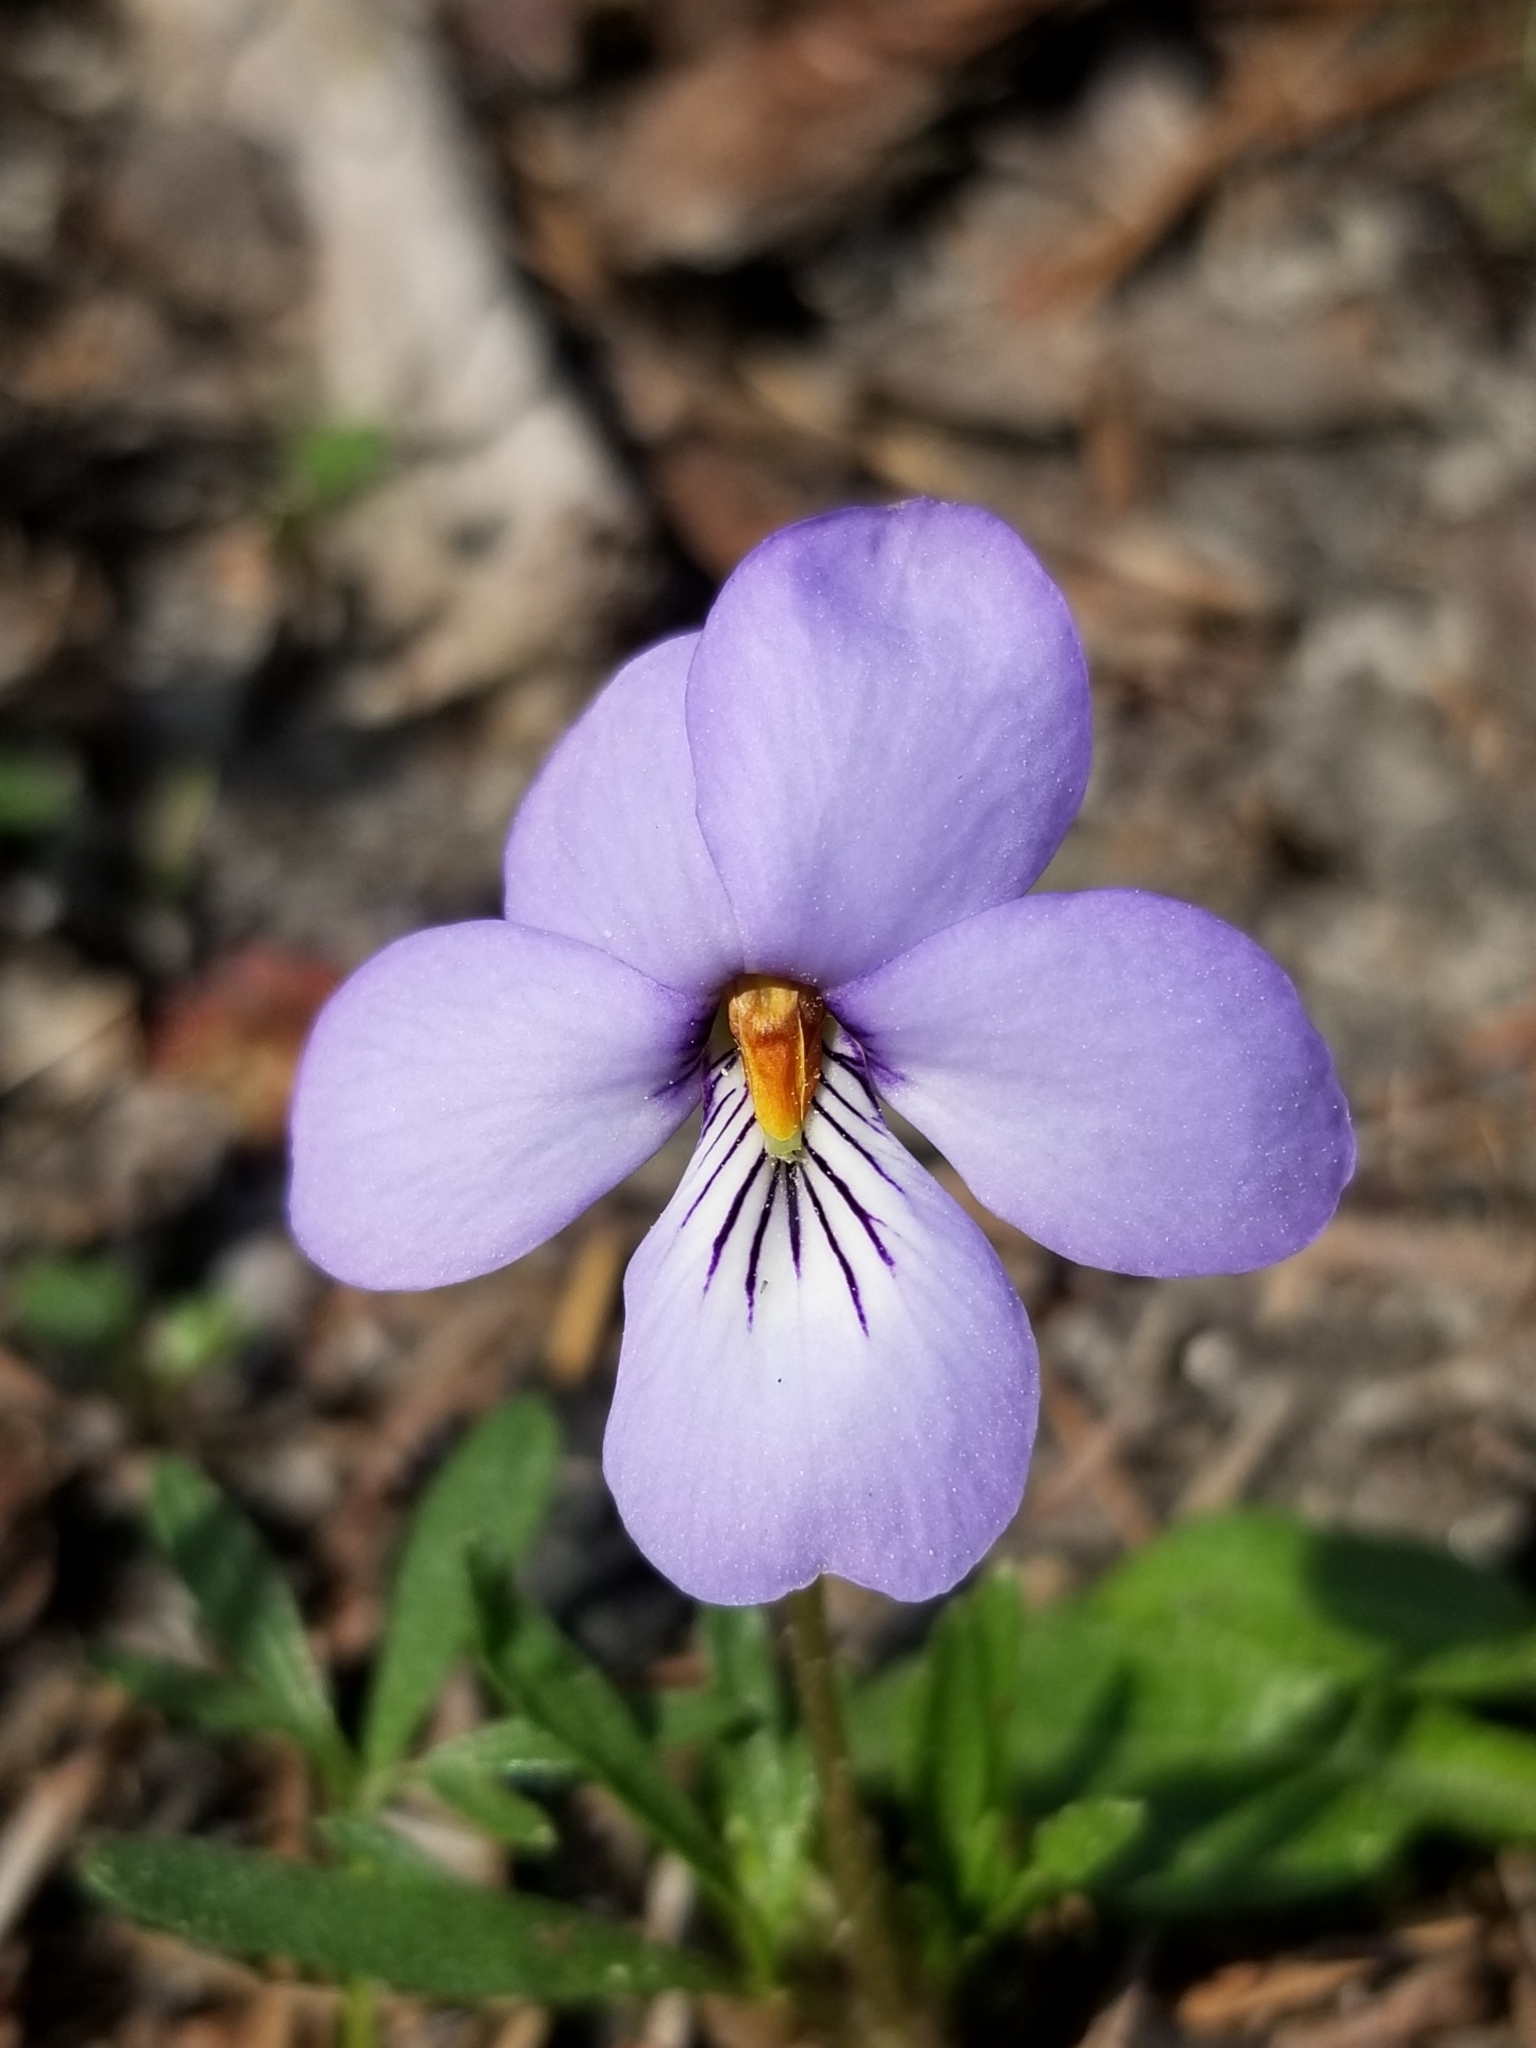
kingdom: Plantae
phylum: Tracheophyta
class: Magnoliopsida
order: Malpighiales
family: Violaceae
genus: Viola
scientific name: Viola pedata
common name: Pansy violet
